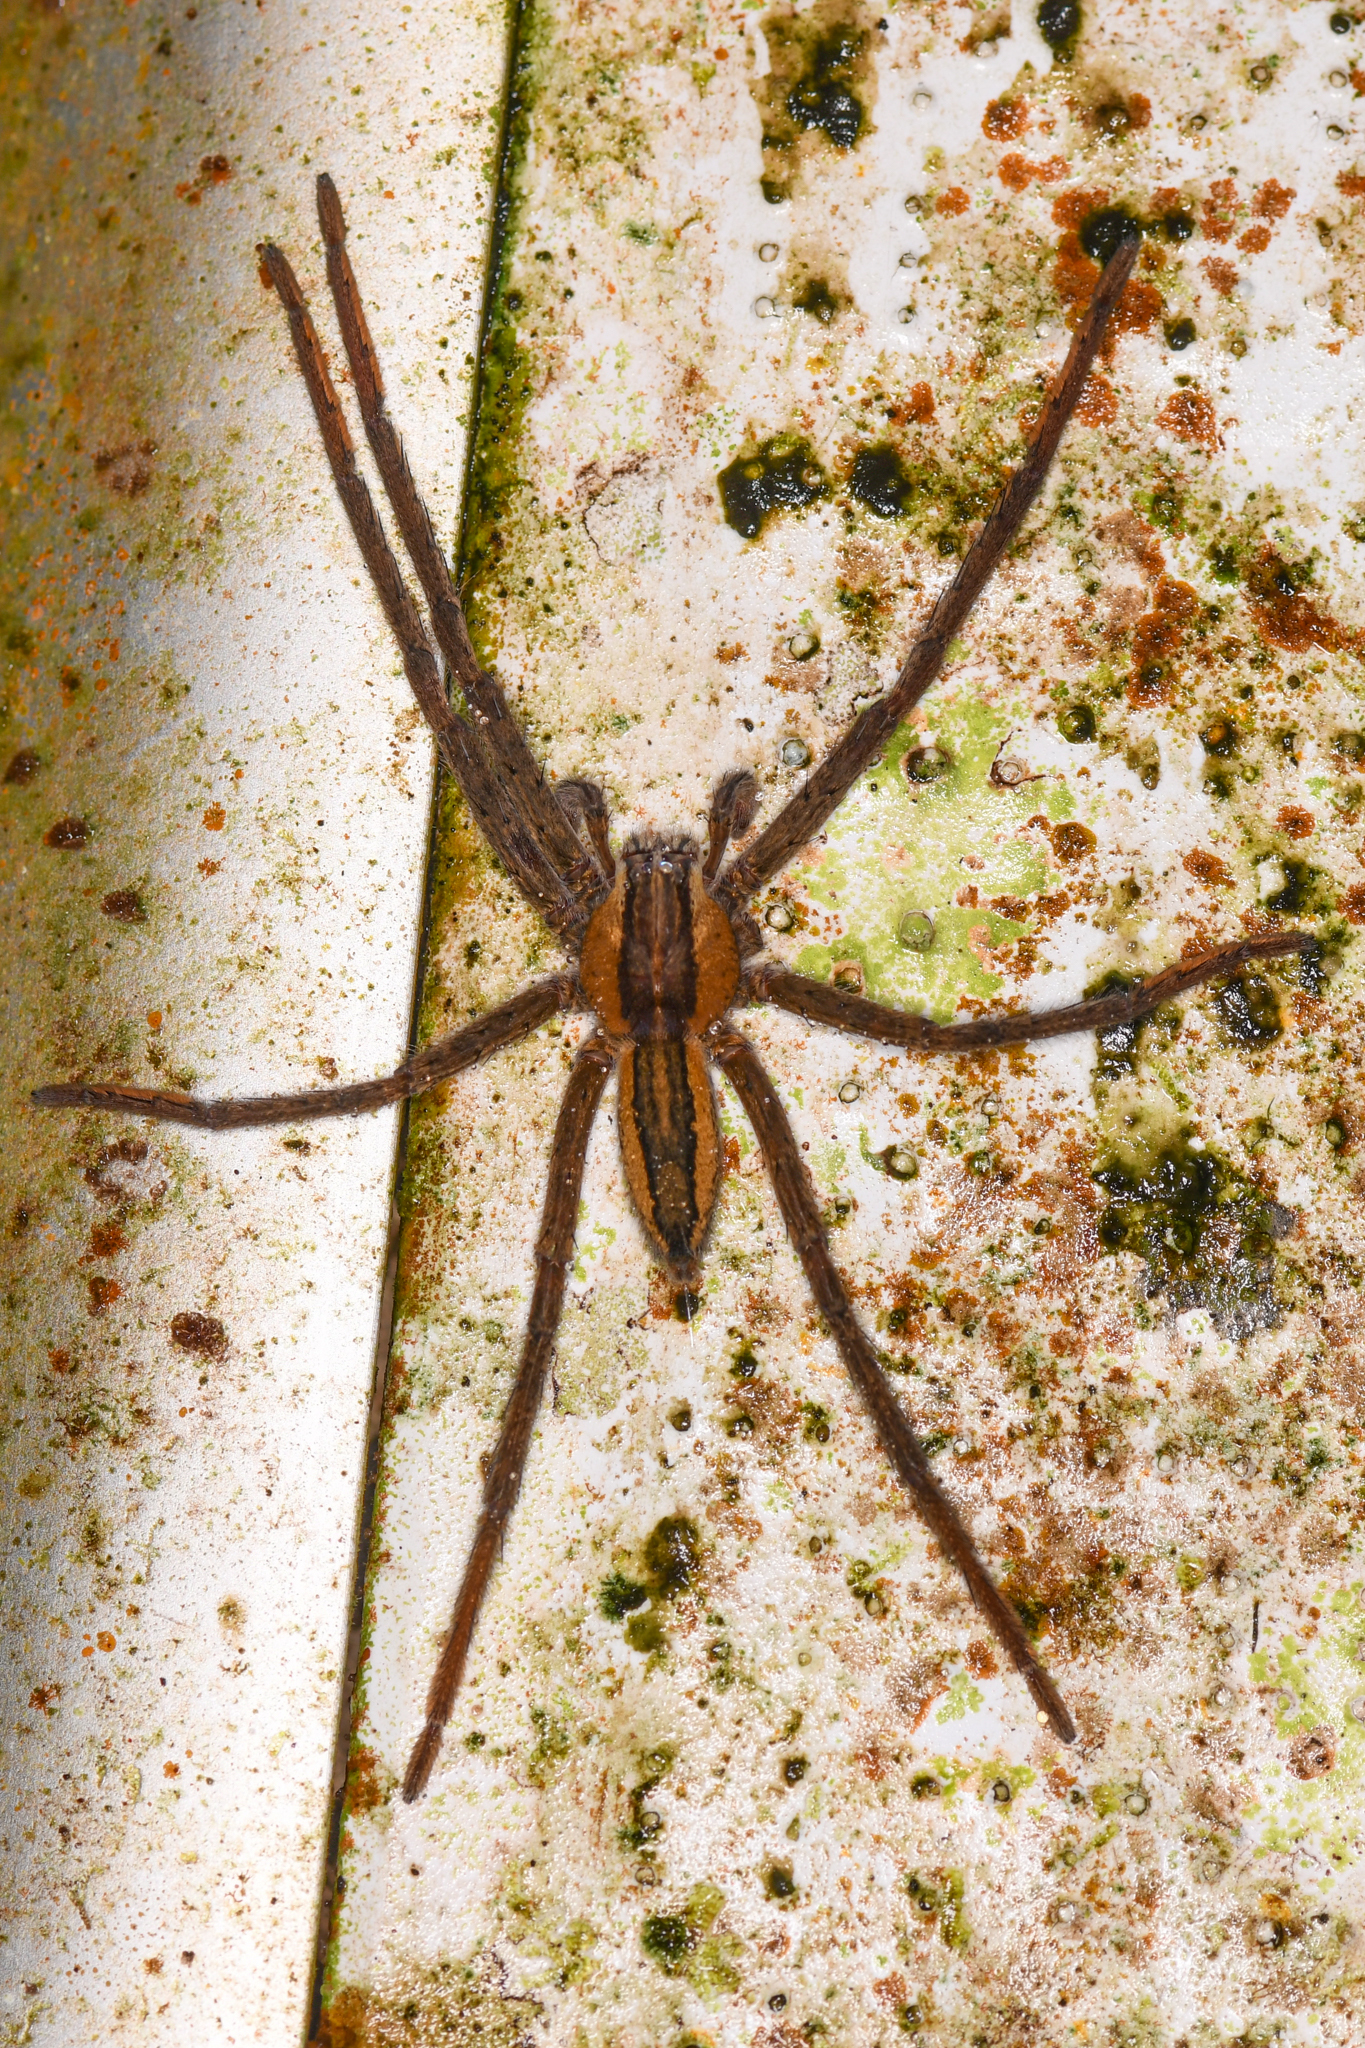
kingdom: Animalia
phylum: Arthropoda
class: Arachnida
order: Araneae
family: Trechaleidae
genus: Cupiennius
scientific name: Cupiennius getazi
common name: Wandering spiders
